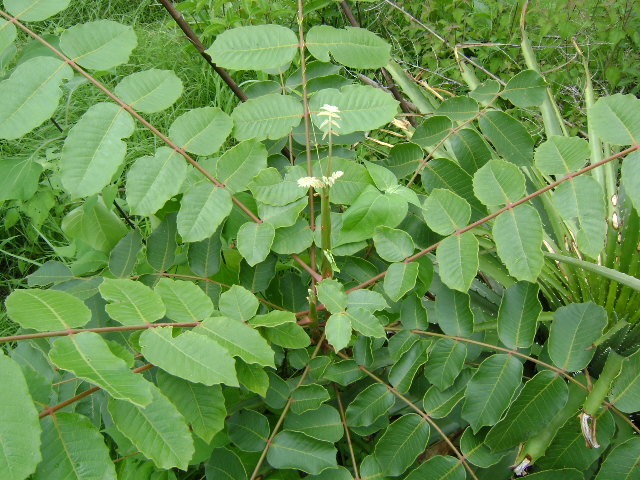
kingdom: Plantae
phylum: Tracheophyta
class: Magnoliopsida
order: Sapindales
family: Anacardiaceae
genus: Comocladia
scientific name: Comocladia macrophylla
